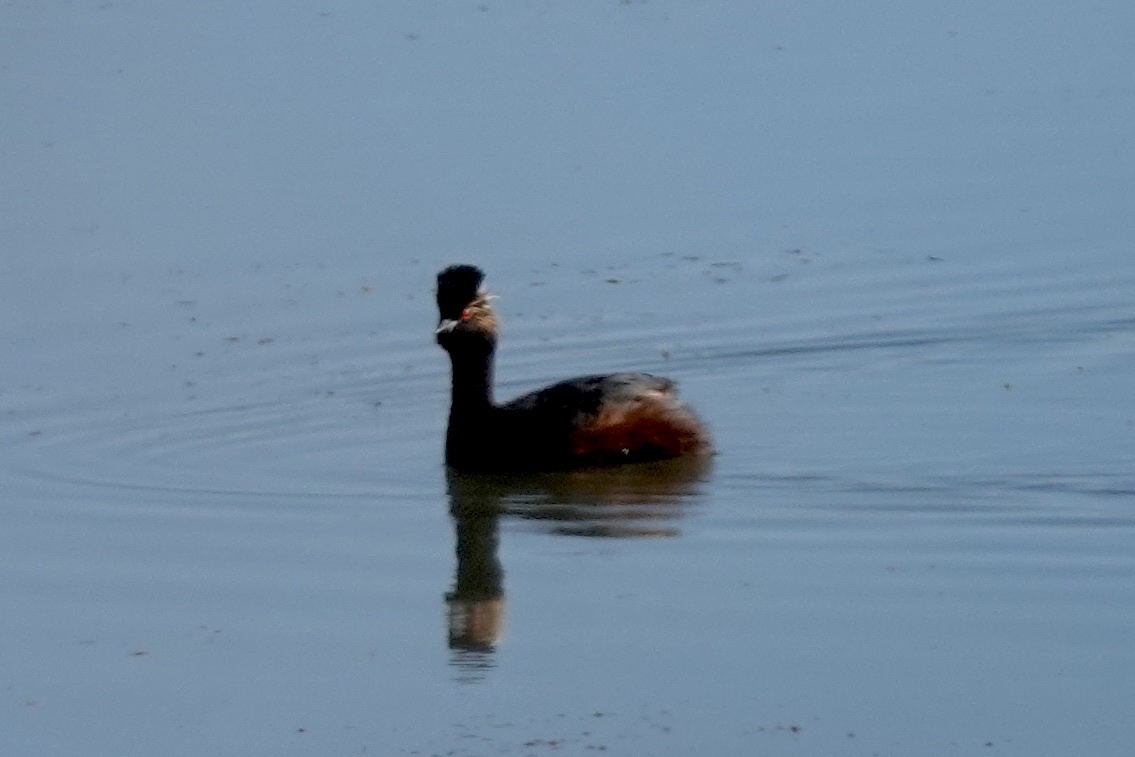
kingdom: Animalia
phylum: Chordata
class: Aves
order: Podicipediformes
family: Podicipedidae
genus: Podiceps
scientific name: Podiceps nigricollis
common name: Black-necked grebe
